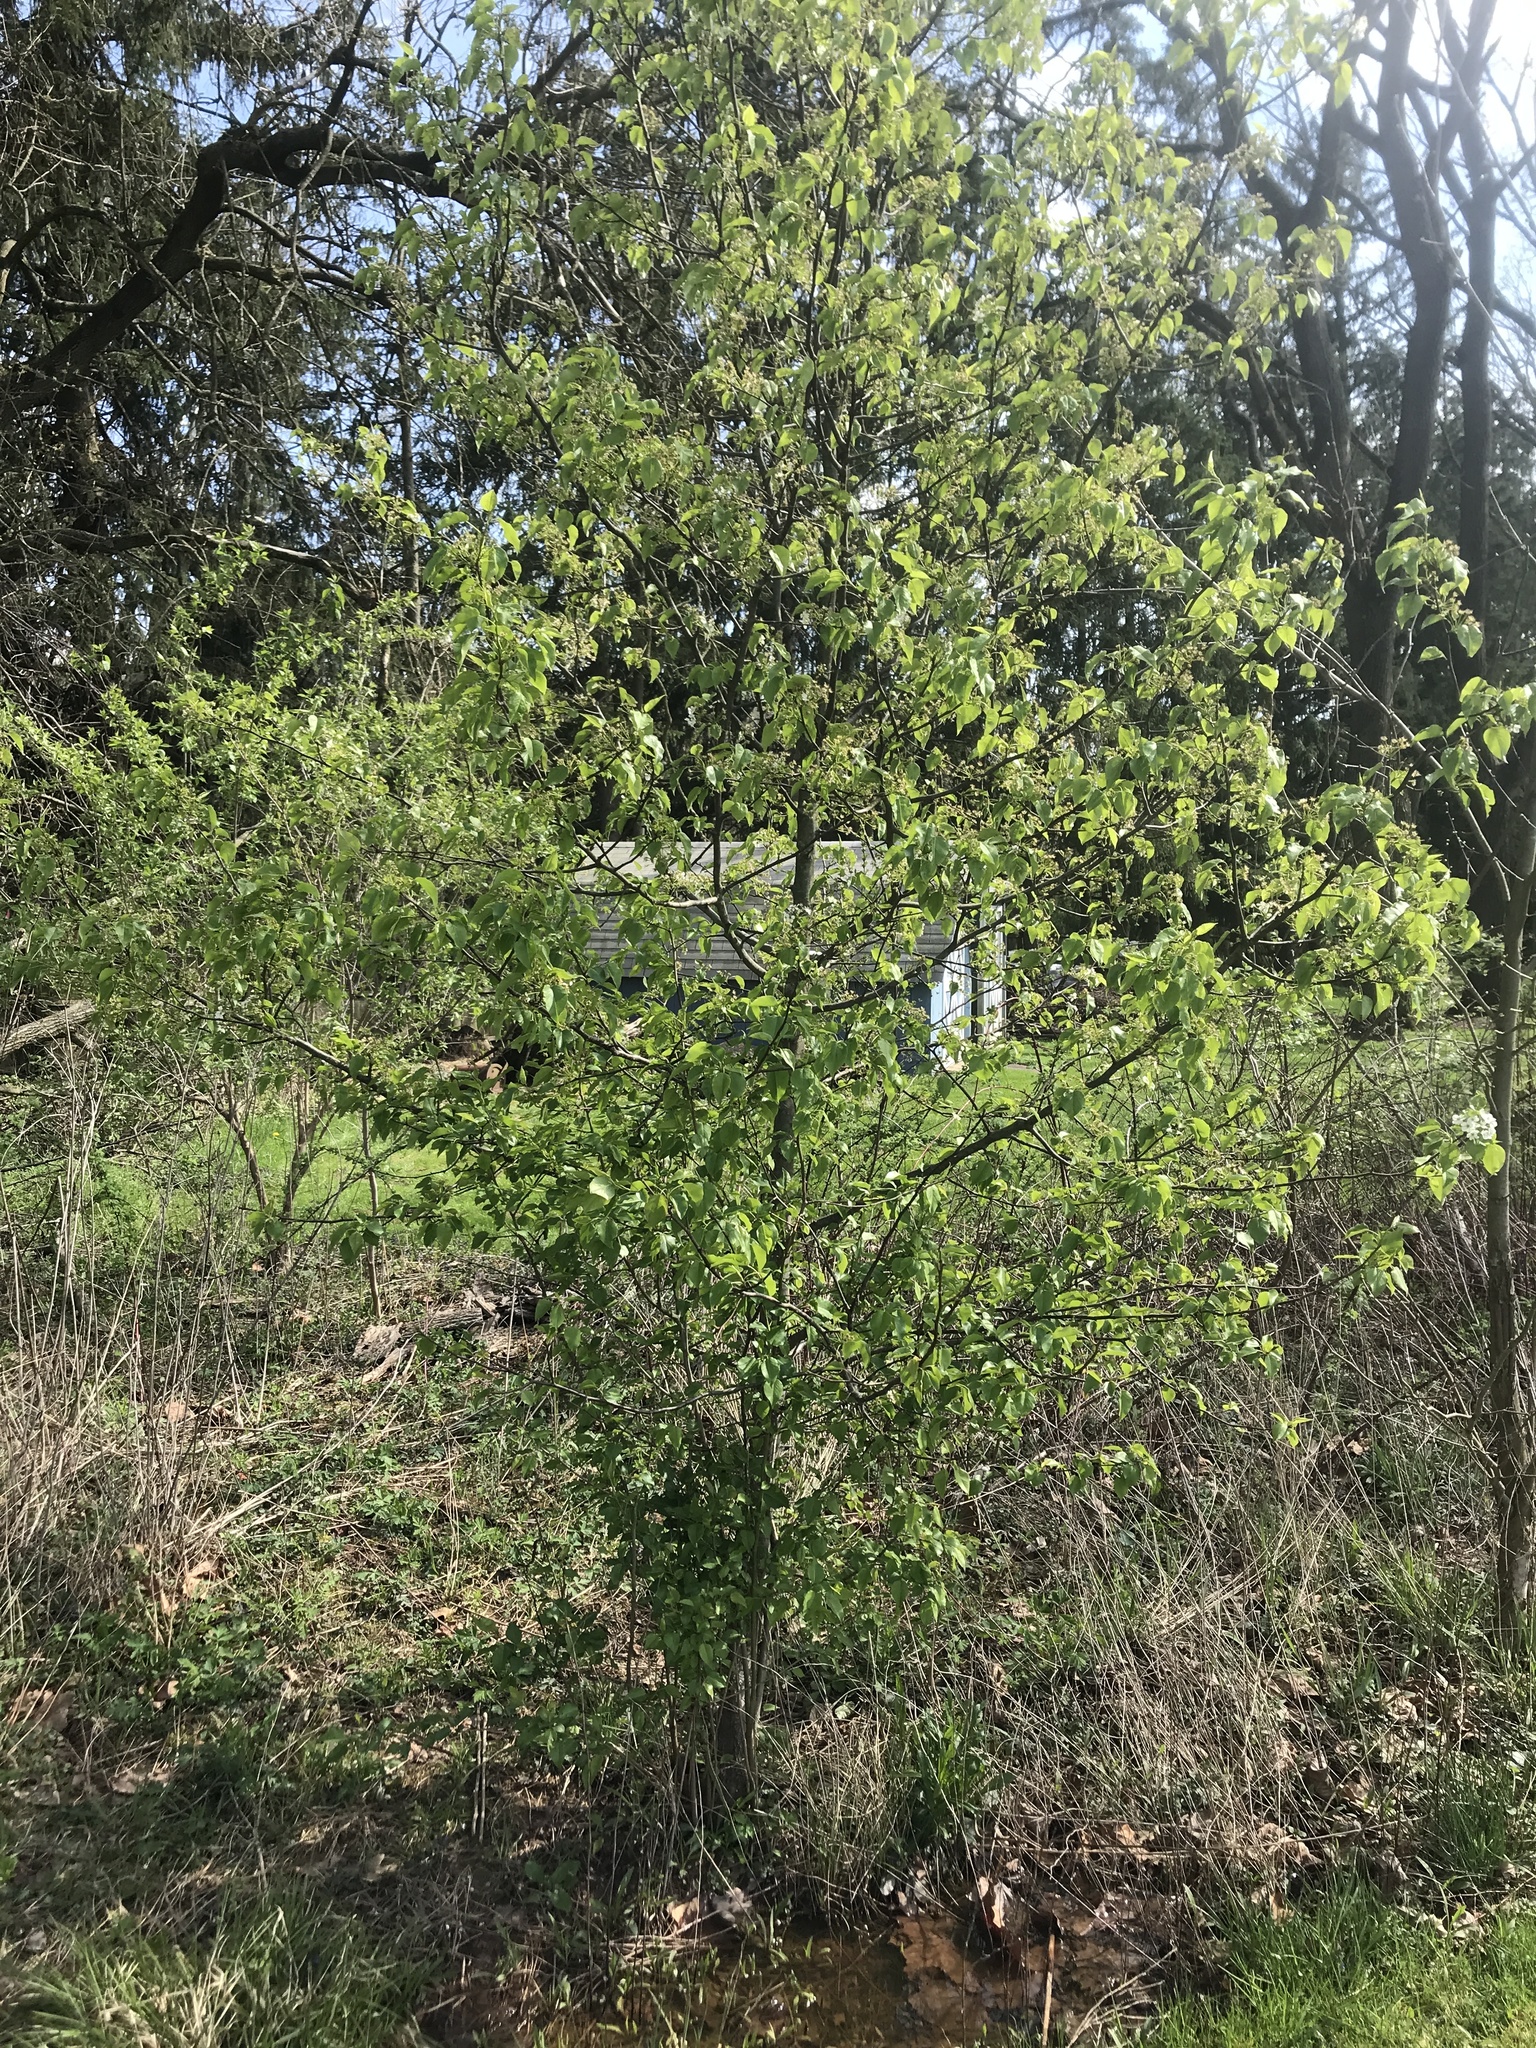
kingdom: Plantae
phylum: Tracheophyta
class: Magnoliopsida
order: Rosales
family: Rosaceae
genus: Pyrus
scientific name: Pyrus calleryana
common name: Callery pear
